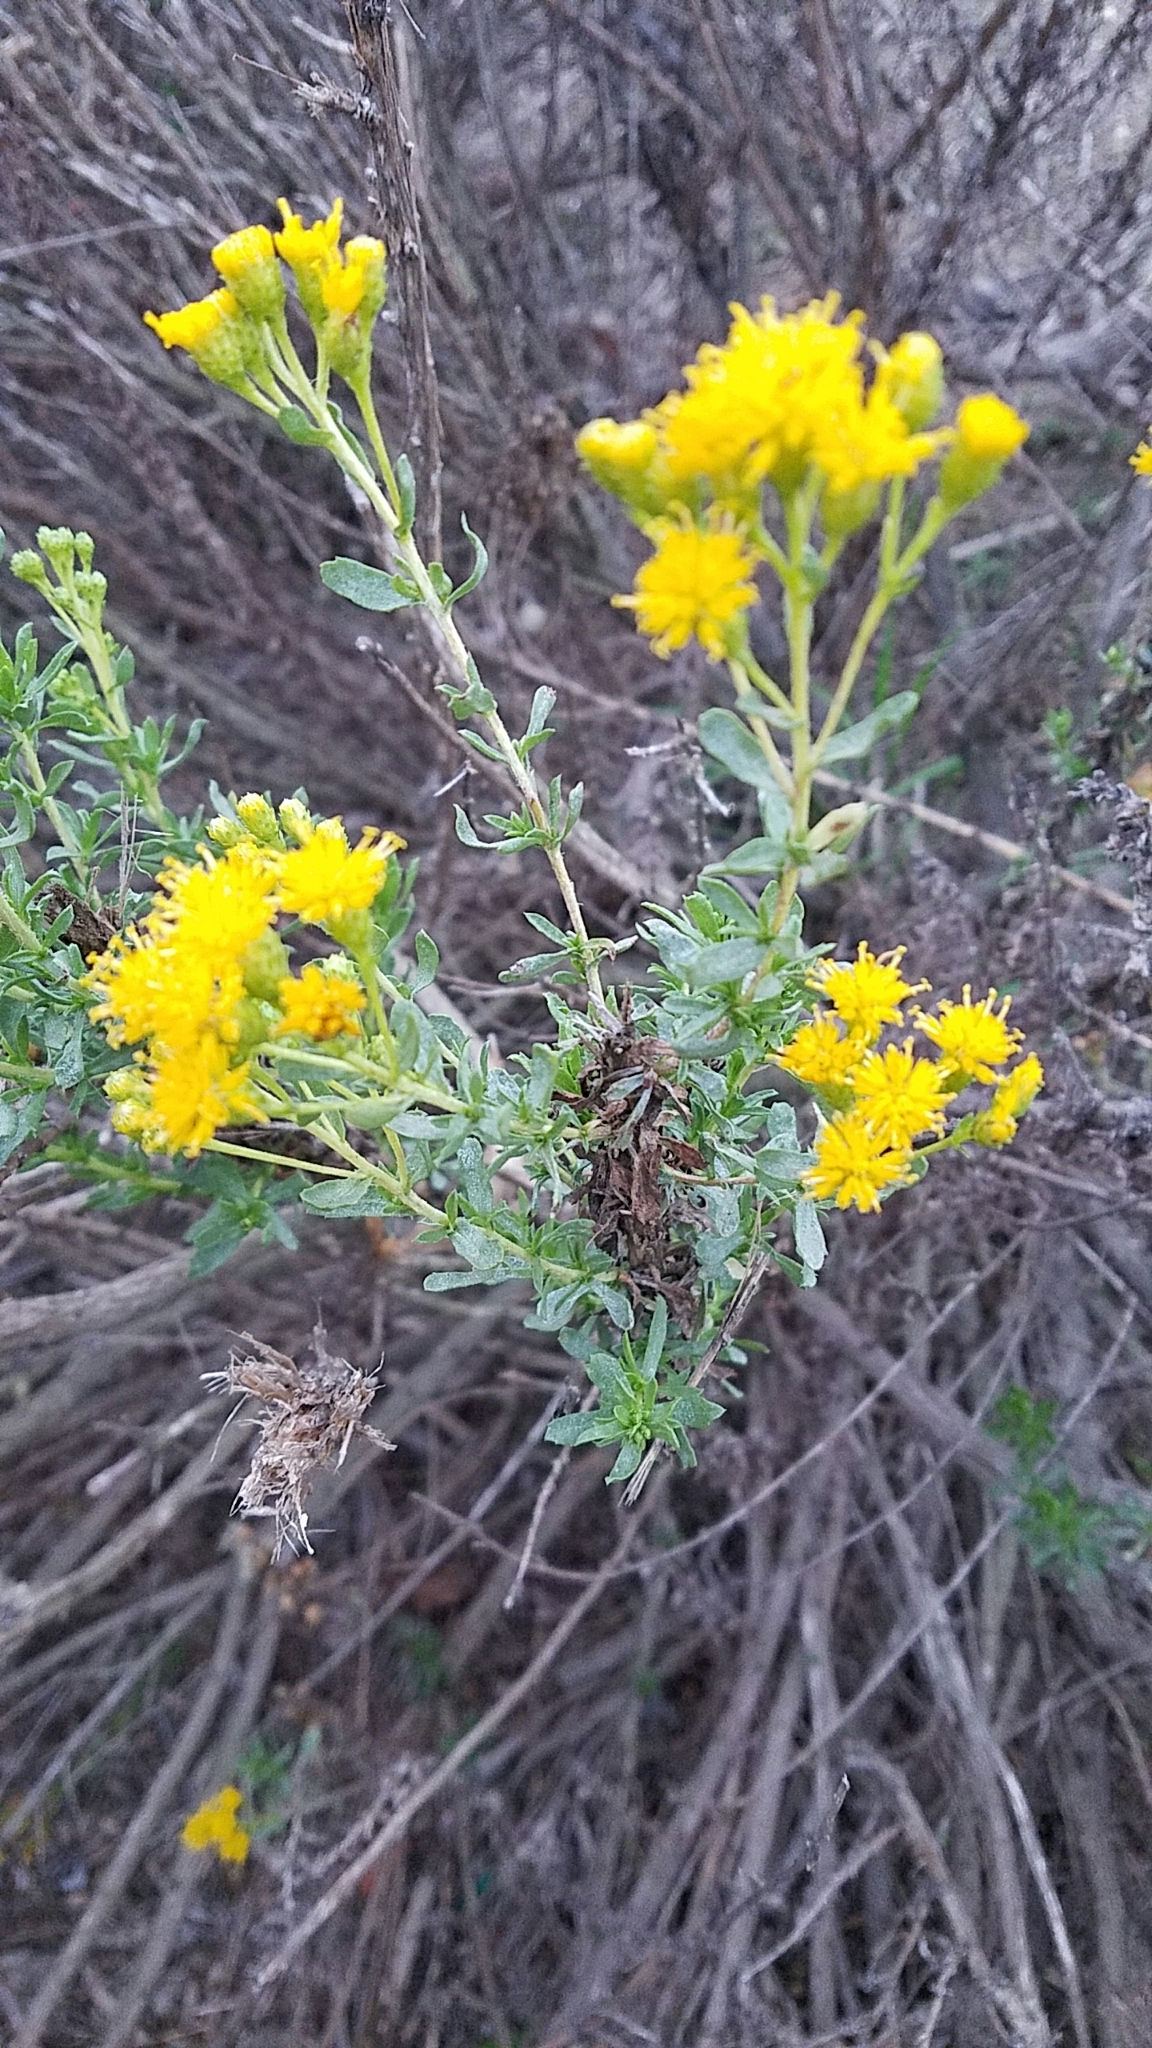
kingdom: Plantae
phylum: Tracheophyta
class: Magnoliopsida
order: Asterales
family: Asteraceae
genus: Isocoma
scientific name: Isocoma menziesii
